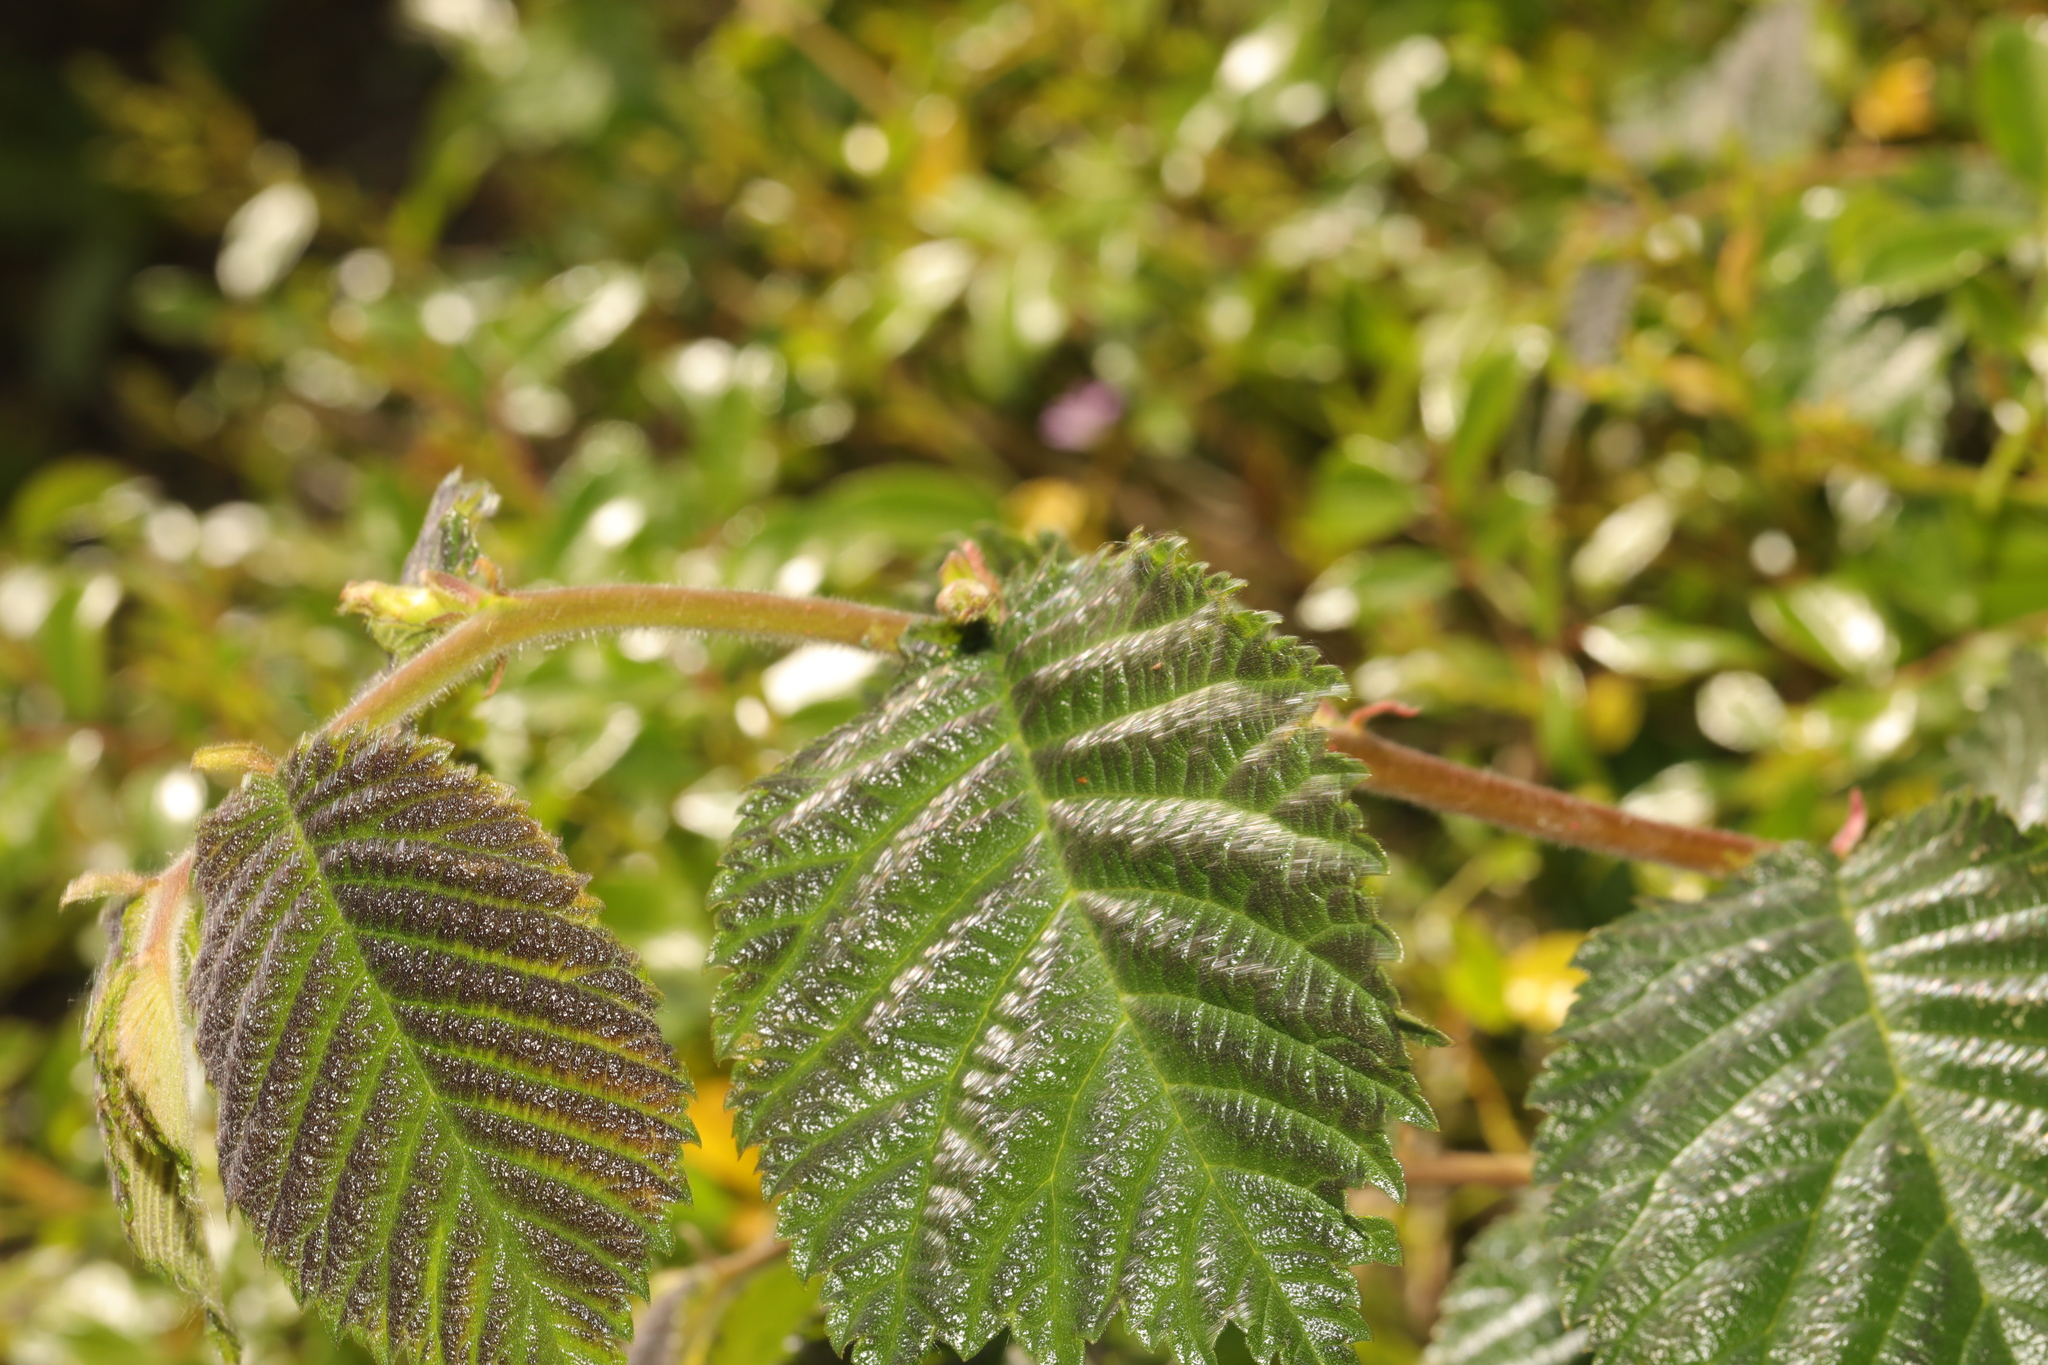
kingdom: Plantae
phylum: Tracheophyta
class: Magnoliopsida
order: Rosales
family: Ulmaceae
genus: Ulmus
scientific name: Ulmus glabra
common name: Wych elm
